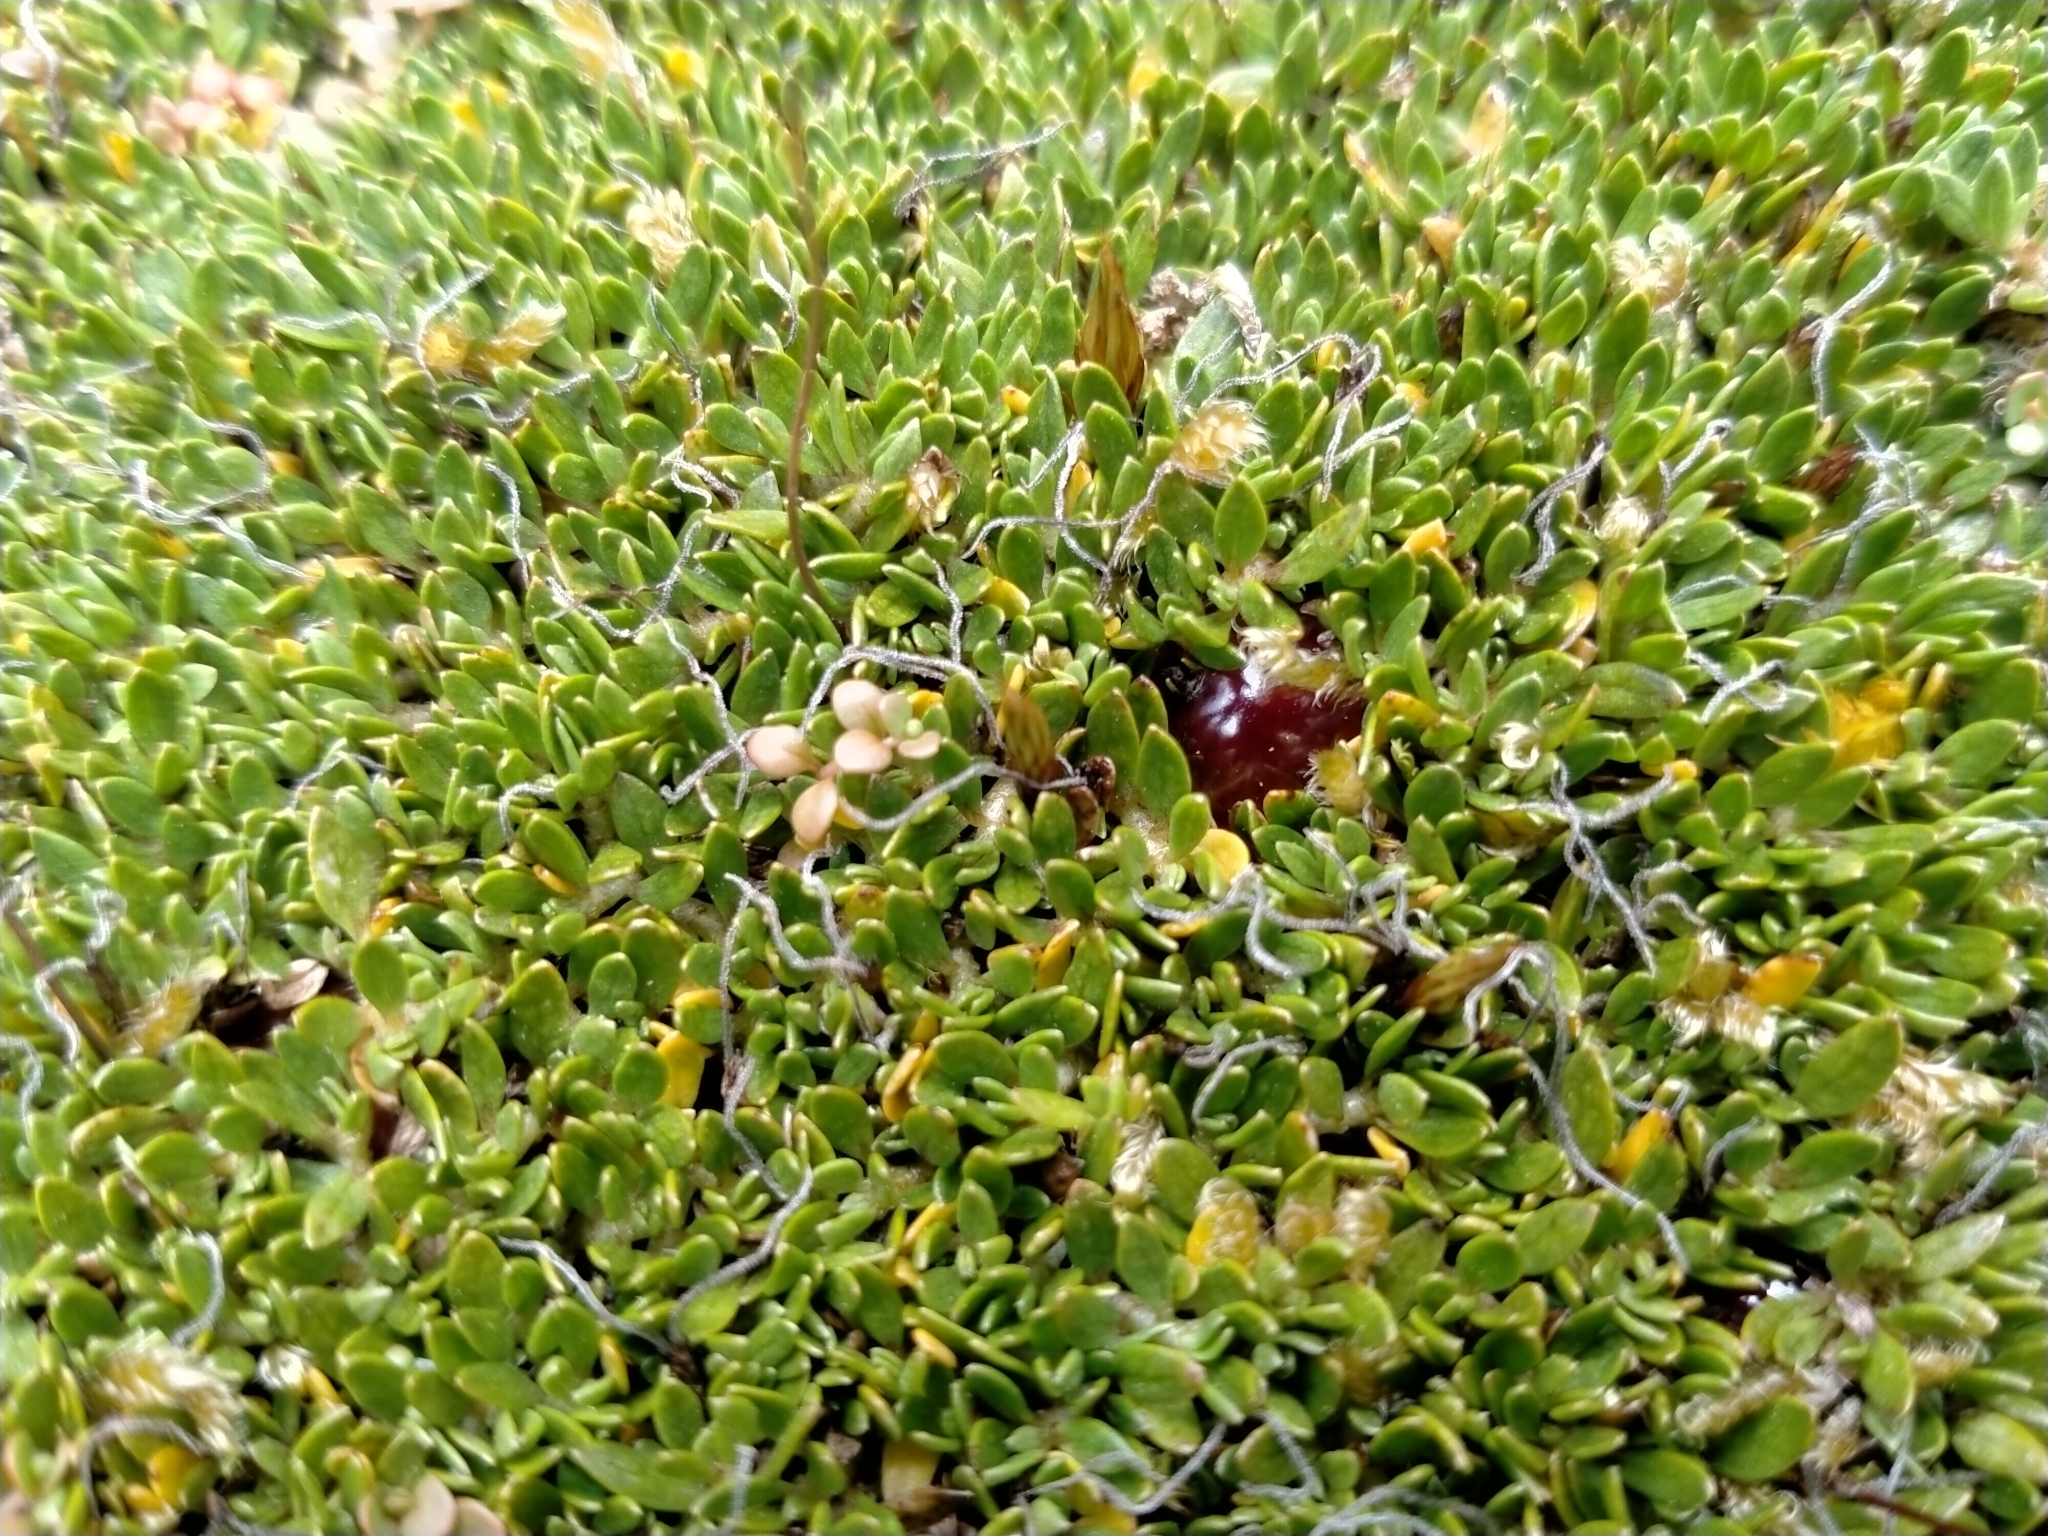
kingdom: Plantae
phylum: Tracheophyta
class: Magnoliopsida
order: Gentianales
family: Rubiaceae
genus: Coprosma
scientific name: Coprosma atropurpurea
